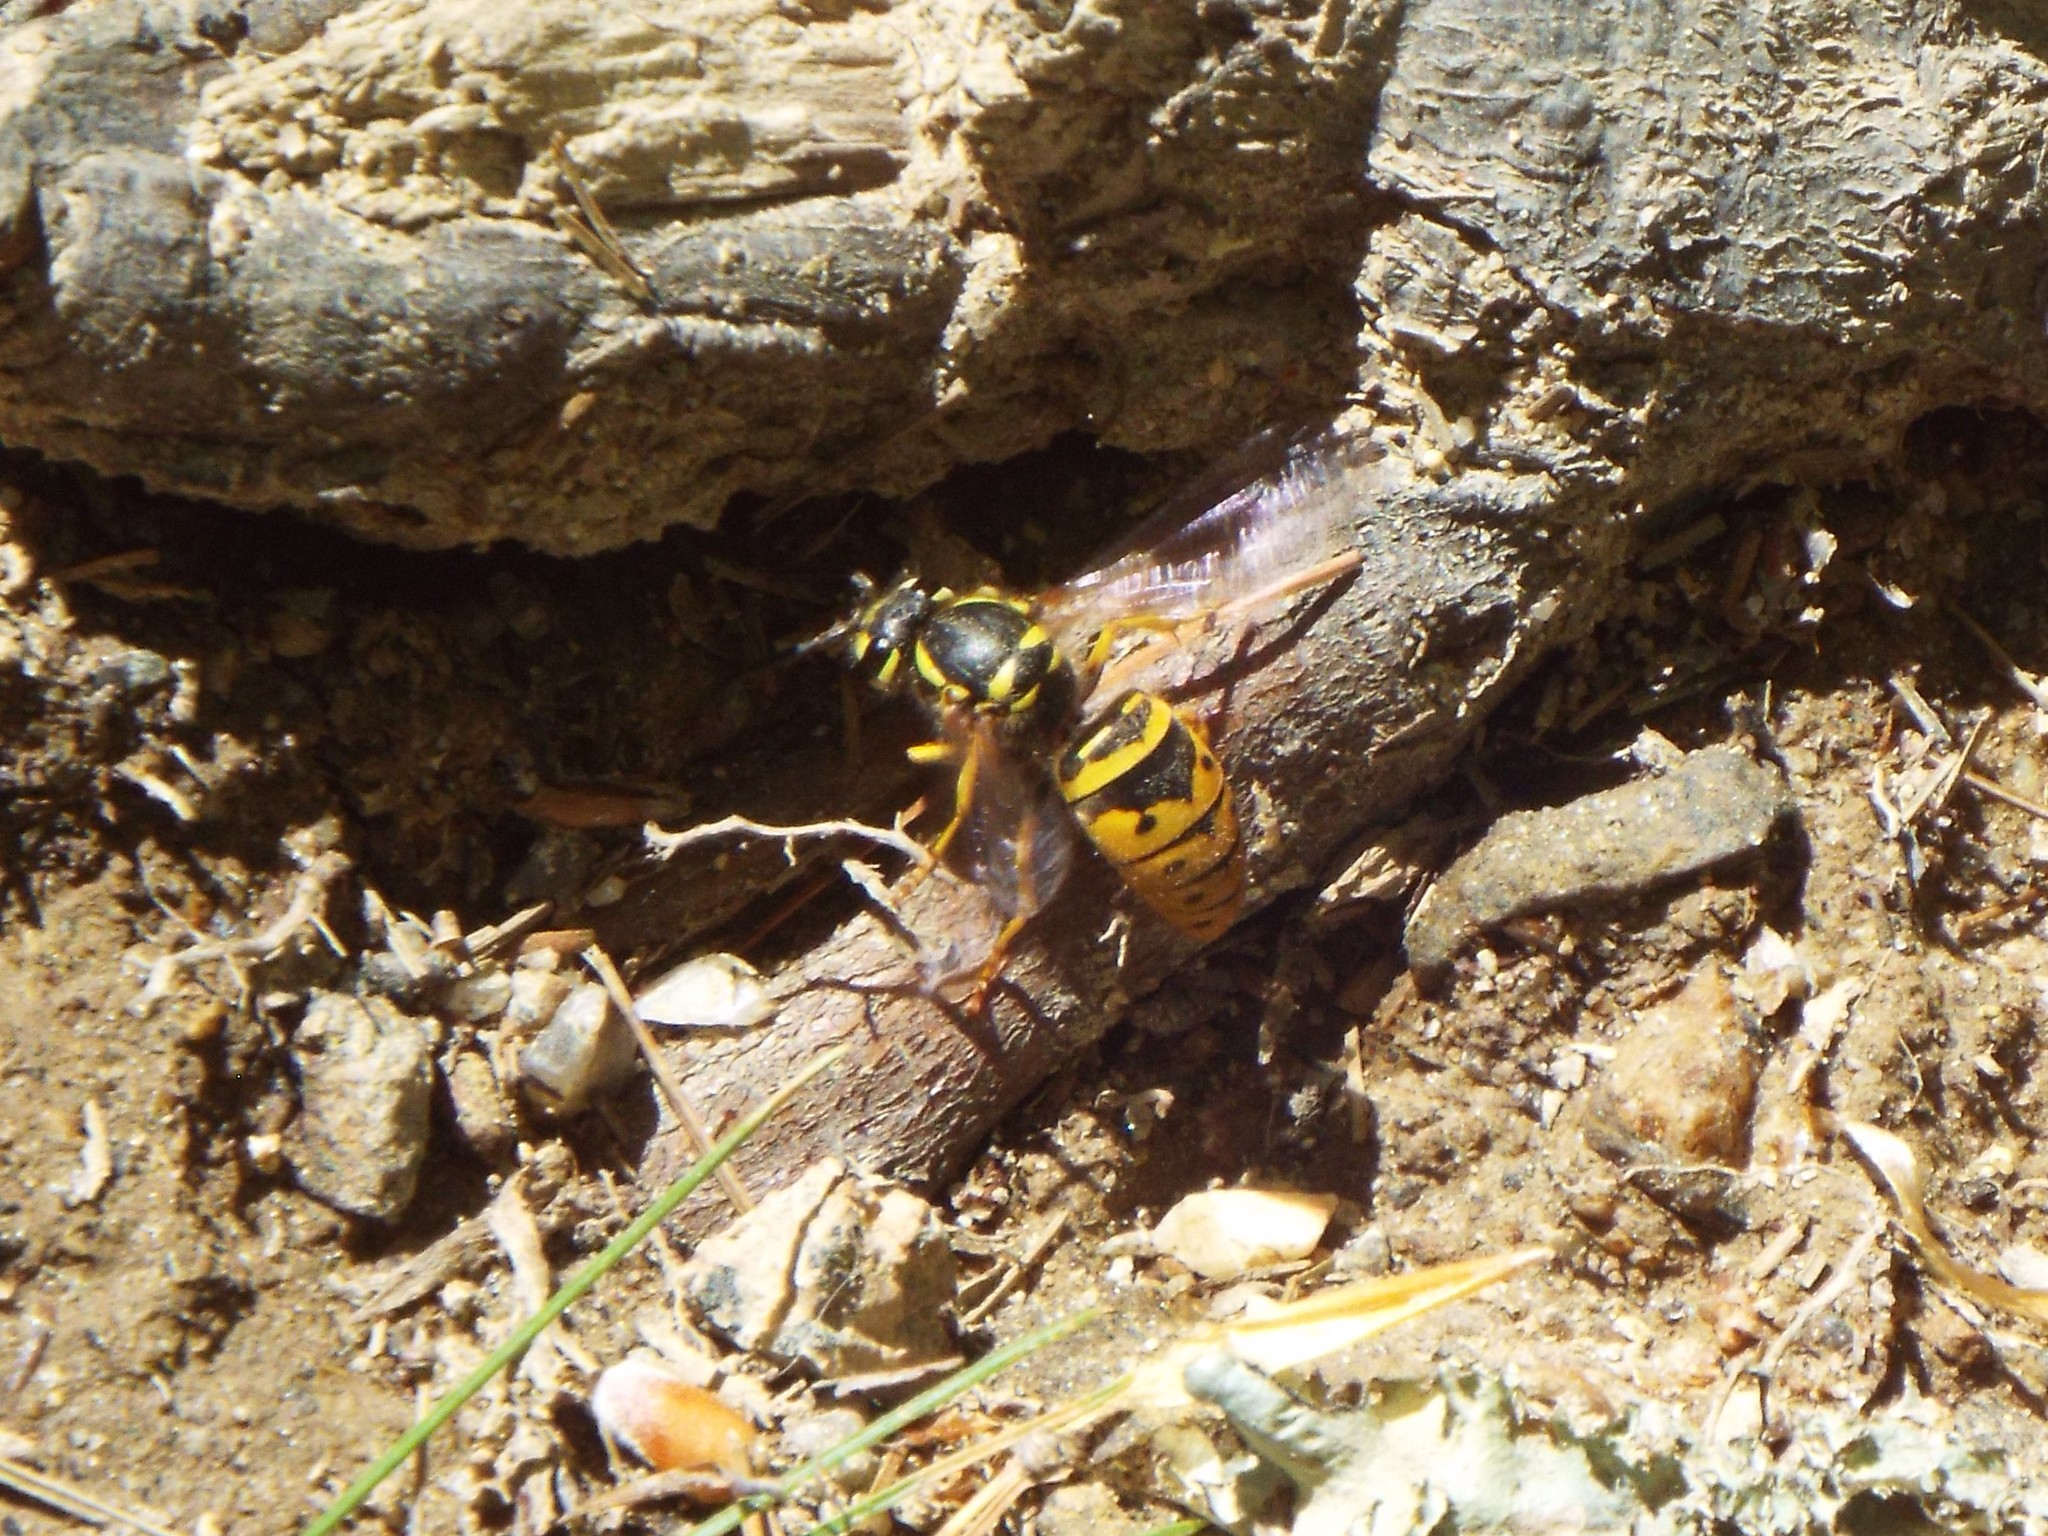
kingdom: Animalia
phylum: Arthropoda
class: Insecta
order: Hymenoptera
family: Vespidae
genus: Vespula
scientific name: Vespula maculifrons
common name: Eastern yellowjacket
